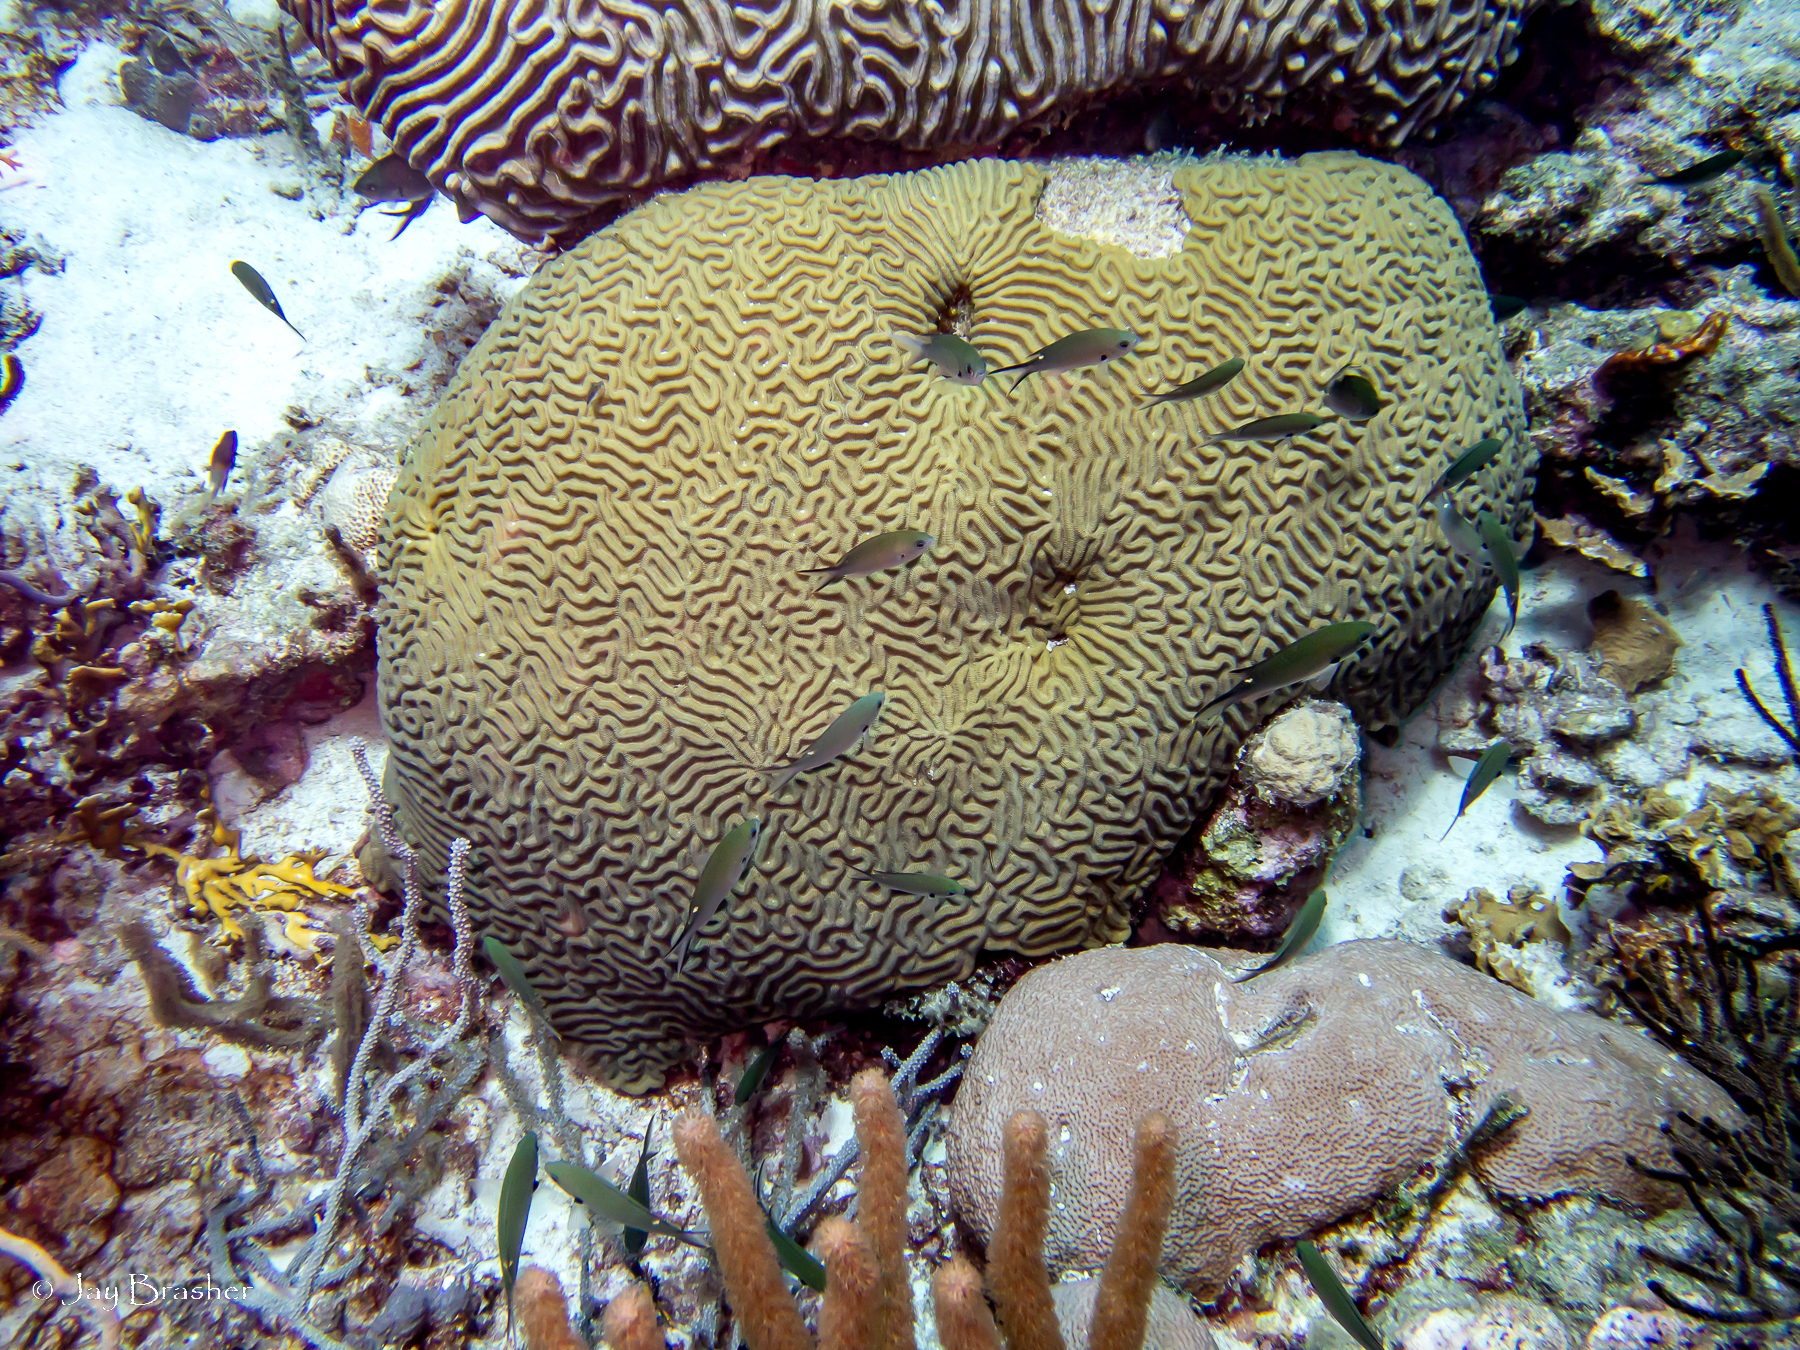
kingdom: Animalia
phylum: Cnidaria
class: Anthozoa
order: Scleractinia
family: Faviidae
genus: Pseudodiploria
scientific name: Pseudodiploria strigosa
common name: Symmetrical brain coral
